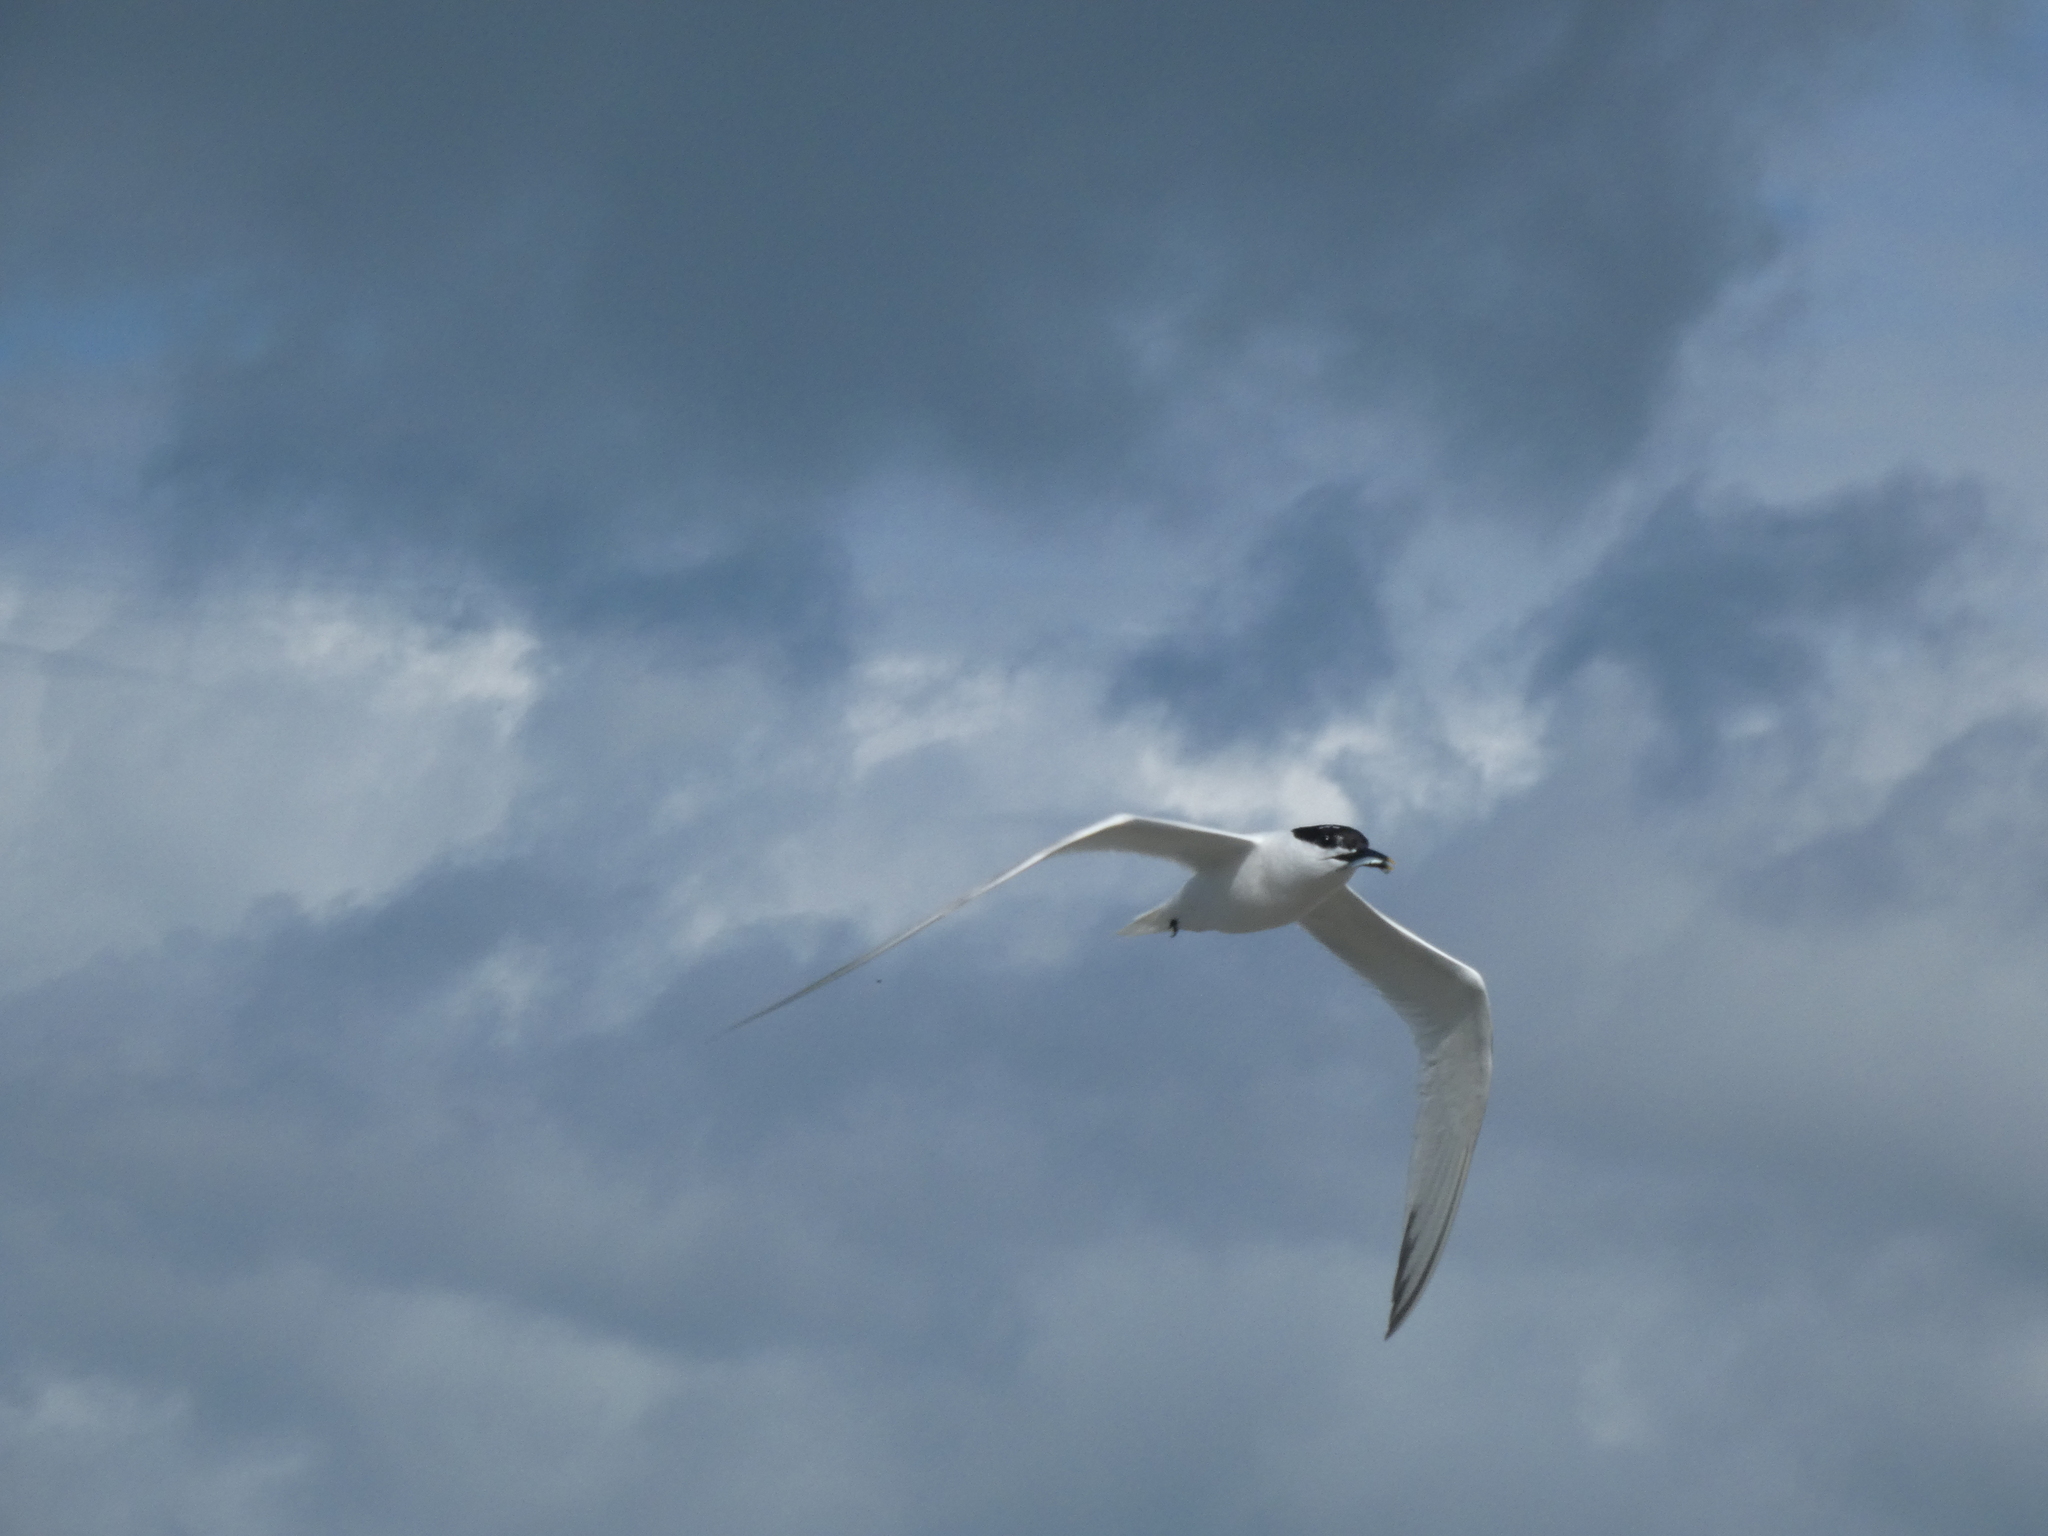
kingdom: Animalia
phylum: Chordata
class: Aves
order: Charadriiformes
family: Laridae
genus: Thalasseus
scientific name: Thalasseus sandvicensis
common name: Sandwich tern
